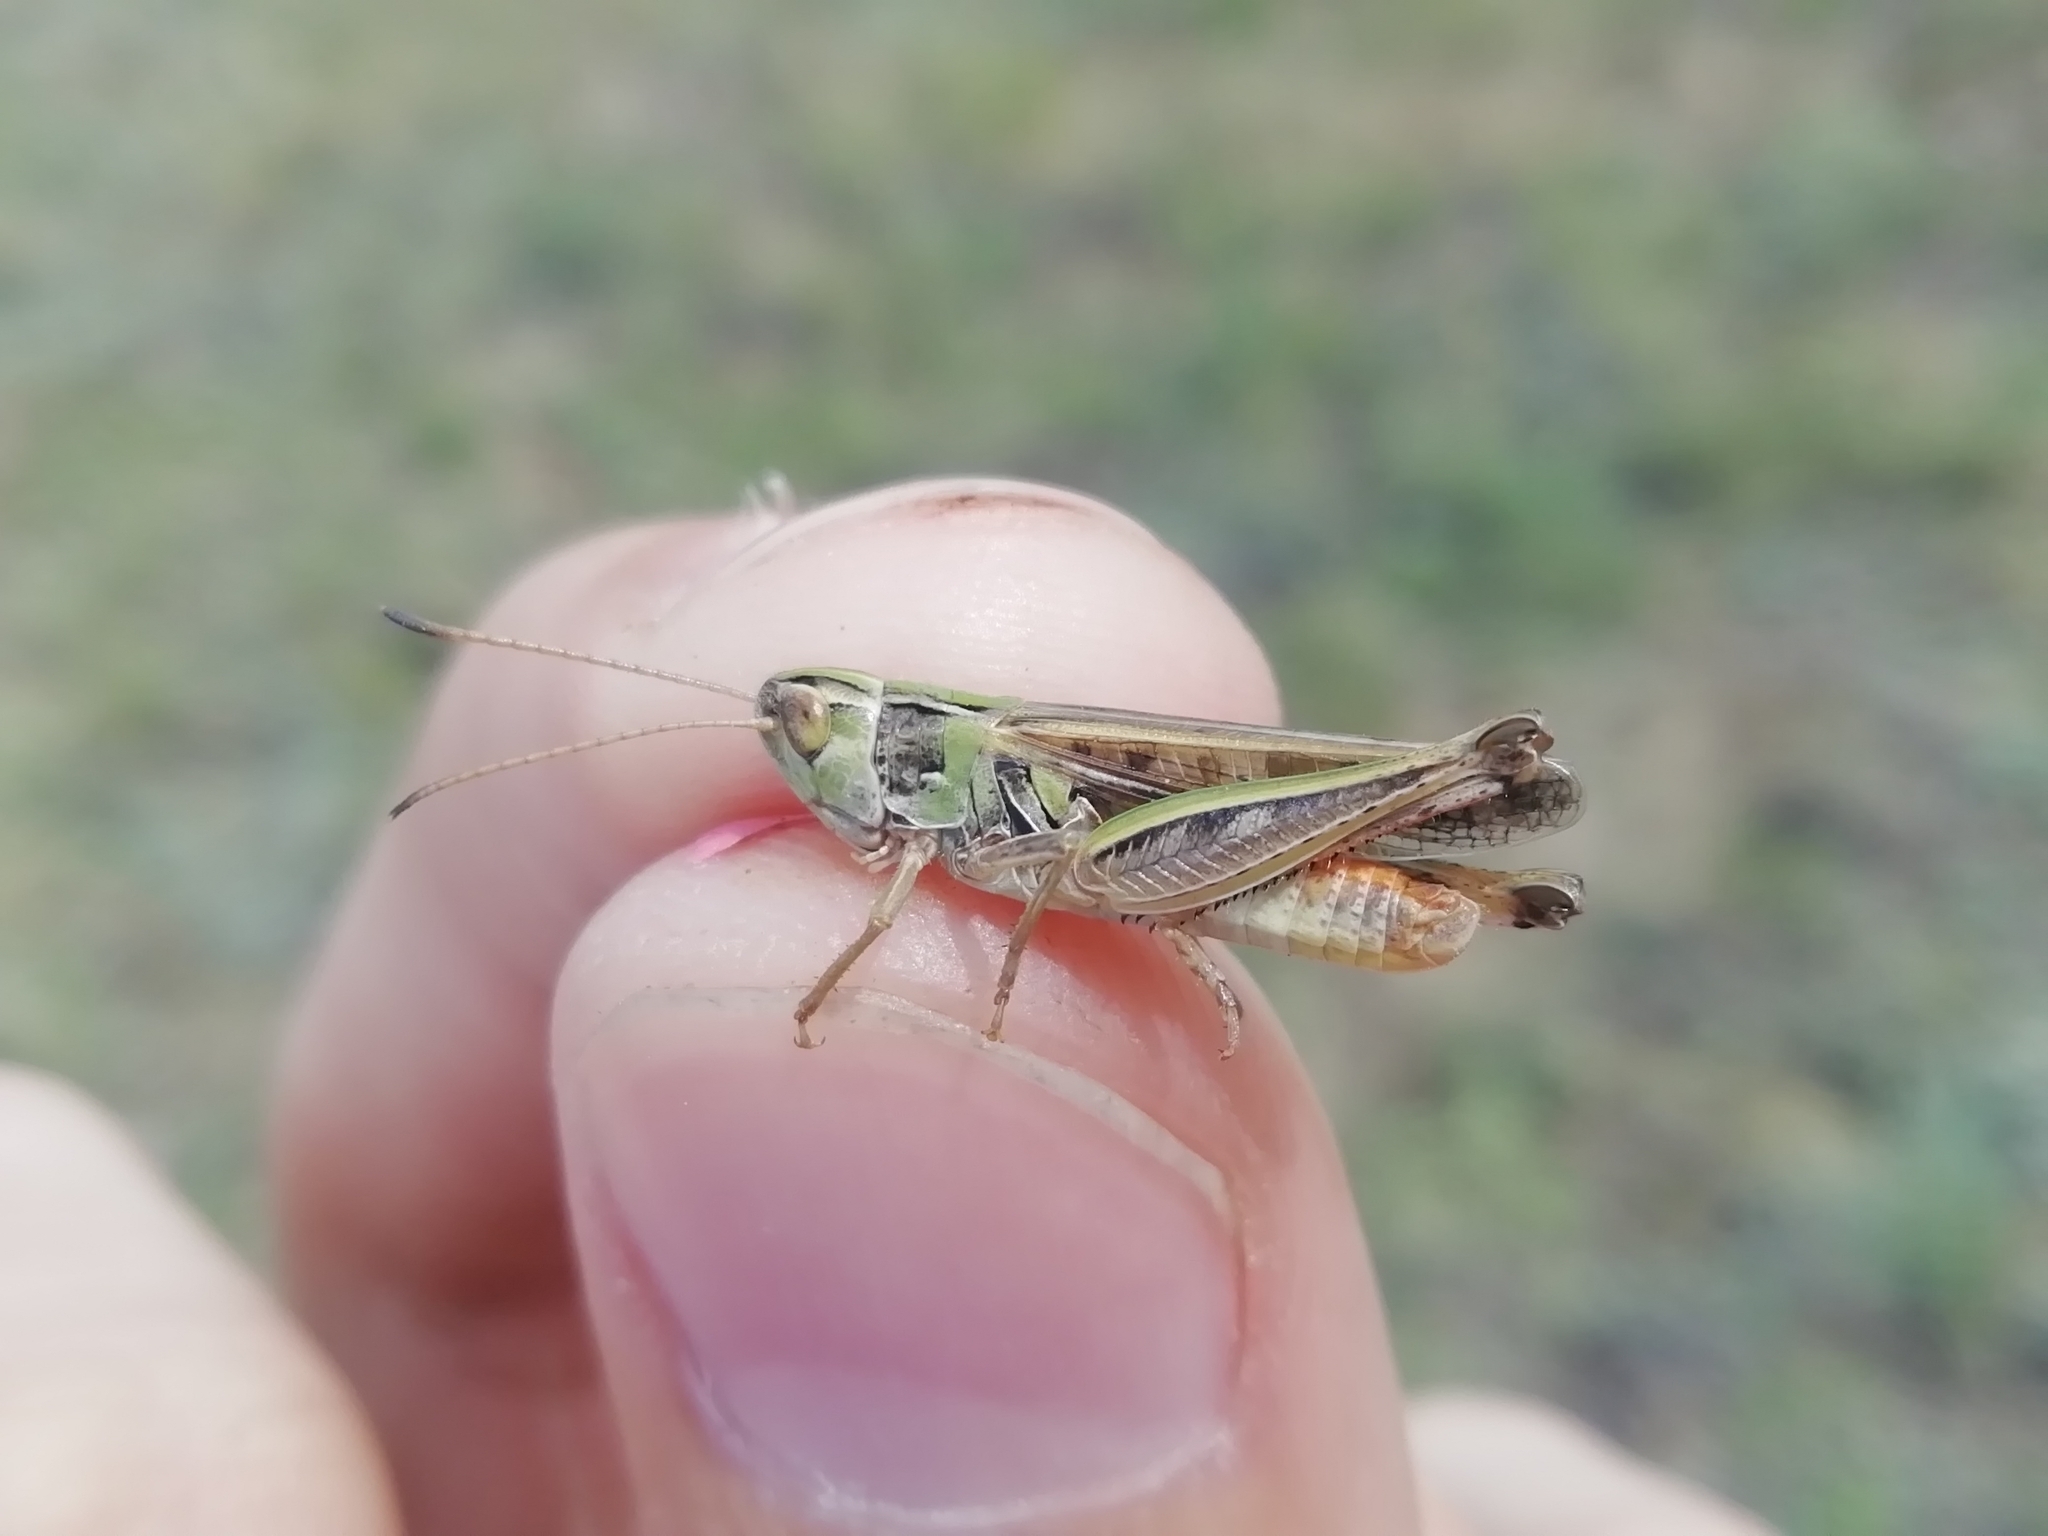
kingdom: Animalia
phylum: Arthropoda
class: Insecta
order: Orthoptera
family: Acrididae
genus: Stenobothrus
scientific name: Stenobothrus eurasius
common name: Eurasian toothed grasshopper
